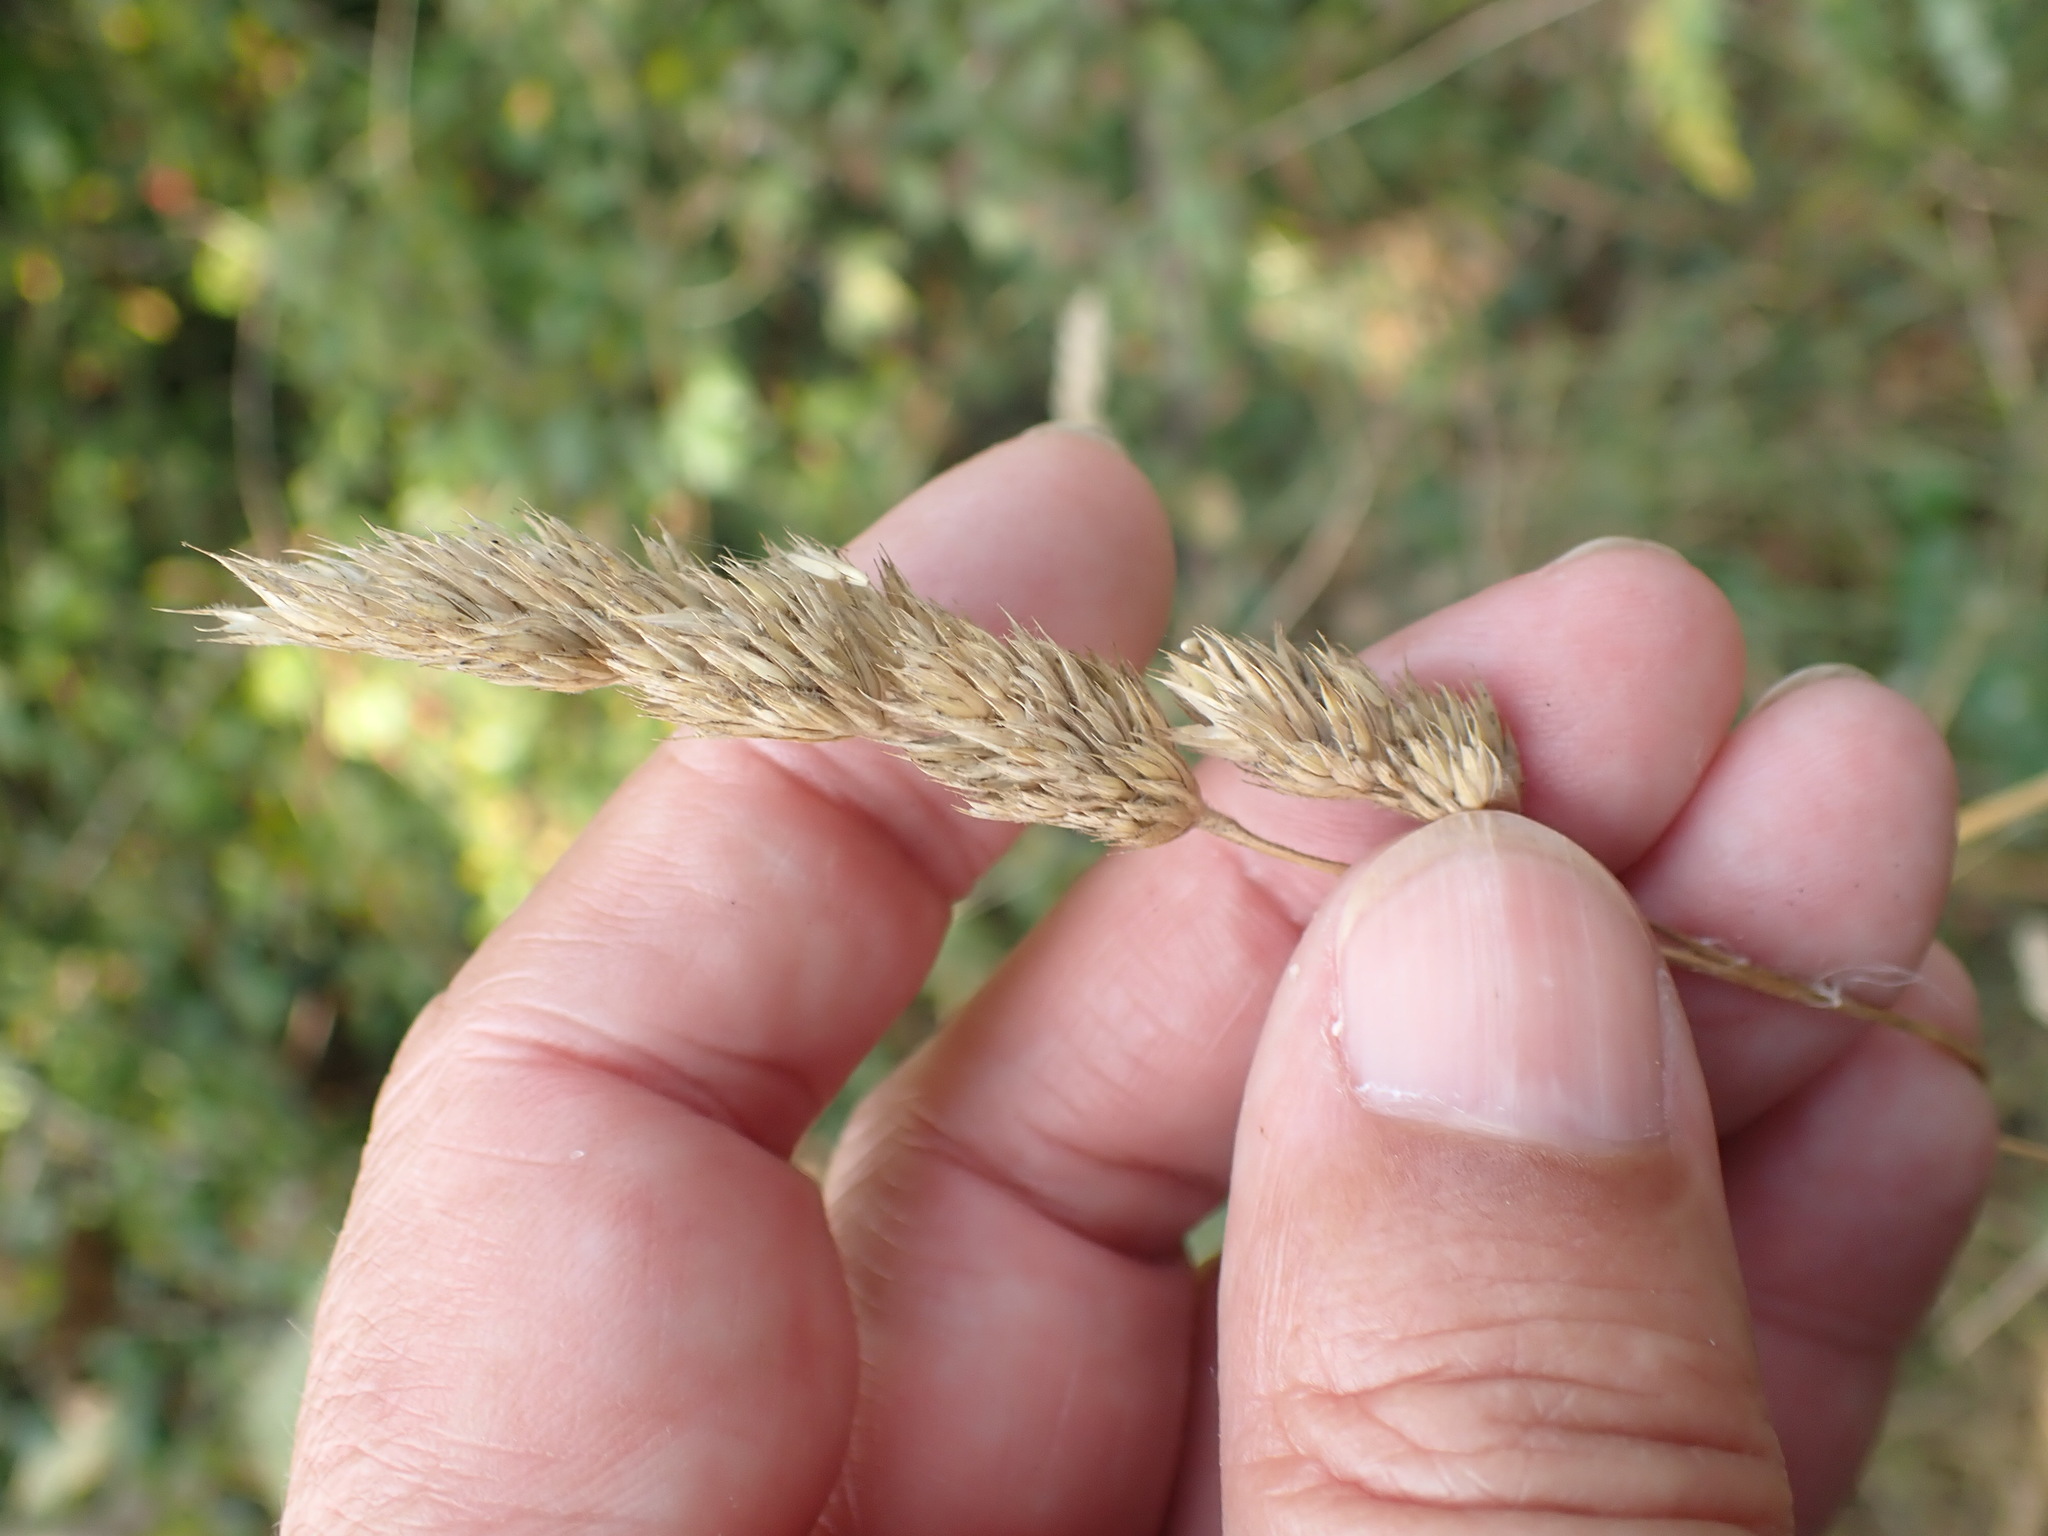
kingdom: Plantae
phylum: Tracheophyta
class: Liliopsida
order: Poales
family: Poaceae
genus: Dactylis
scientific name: Dactylis glomerata
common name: Orchardgrass
